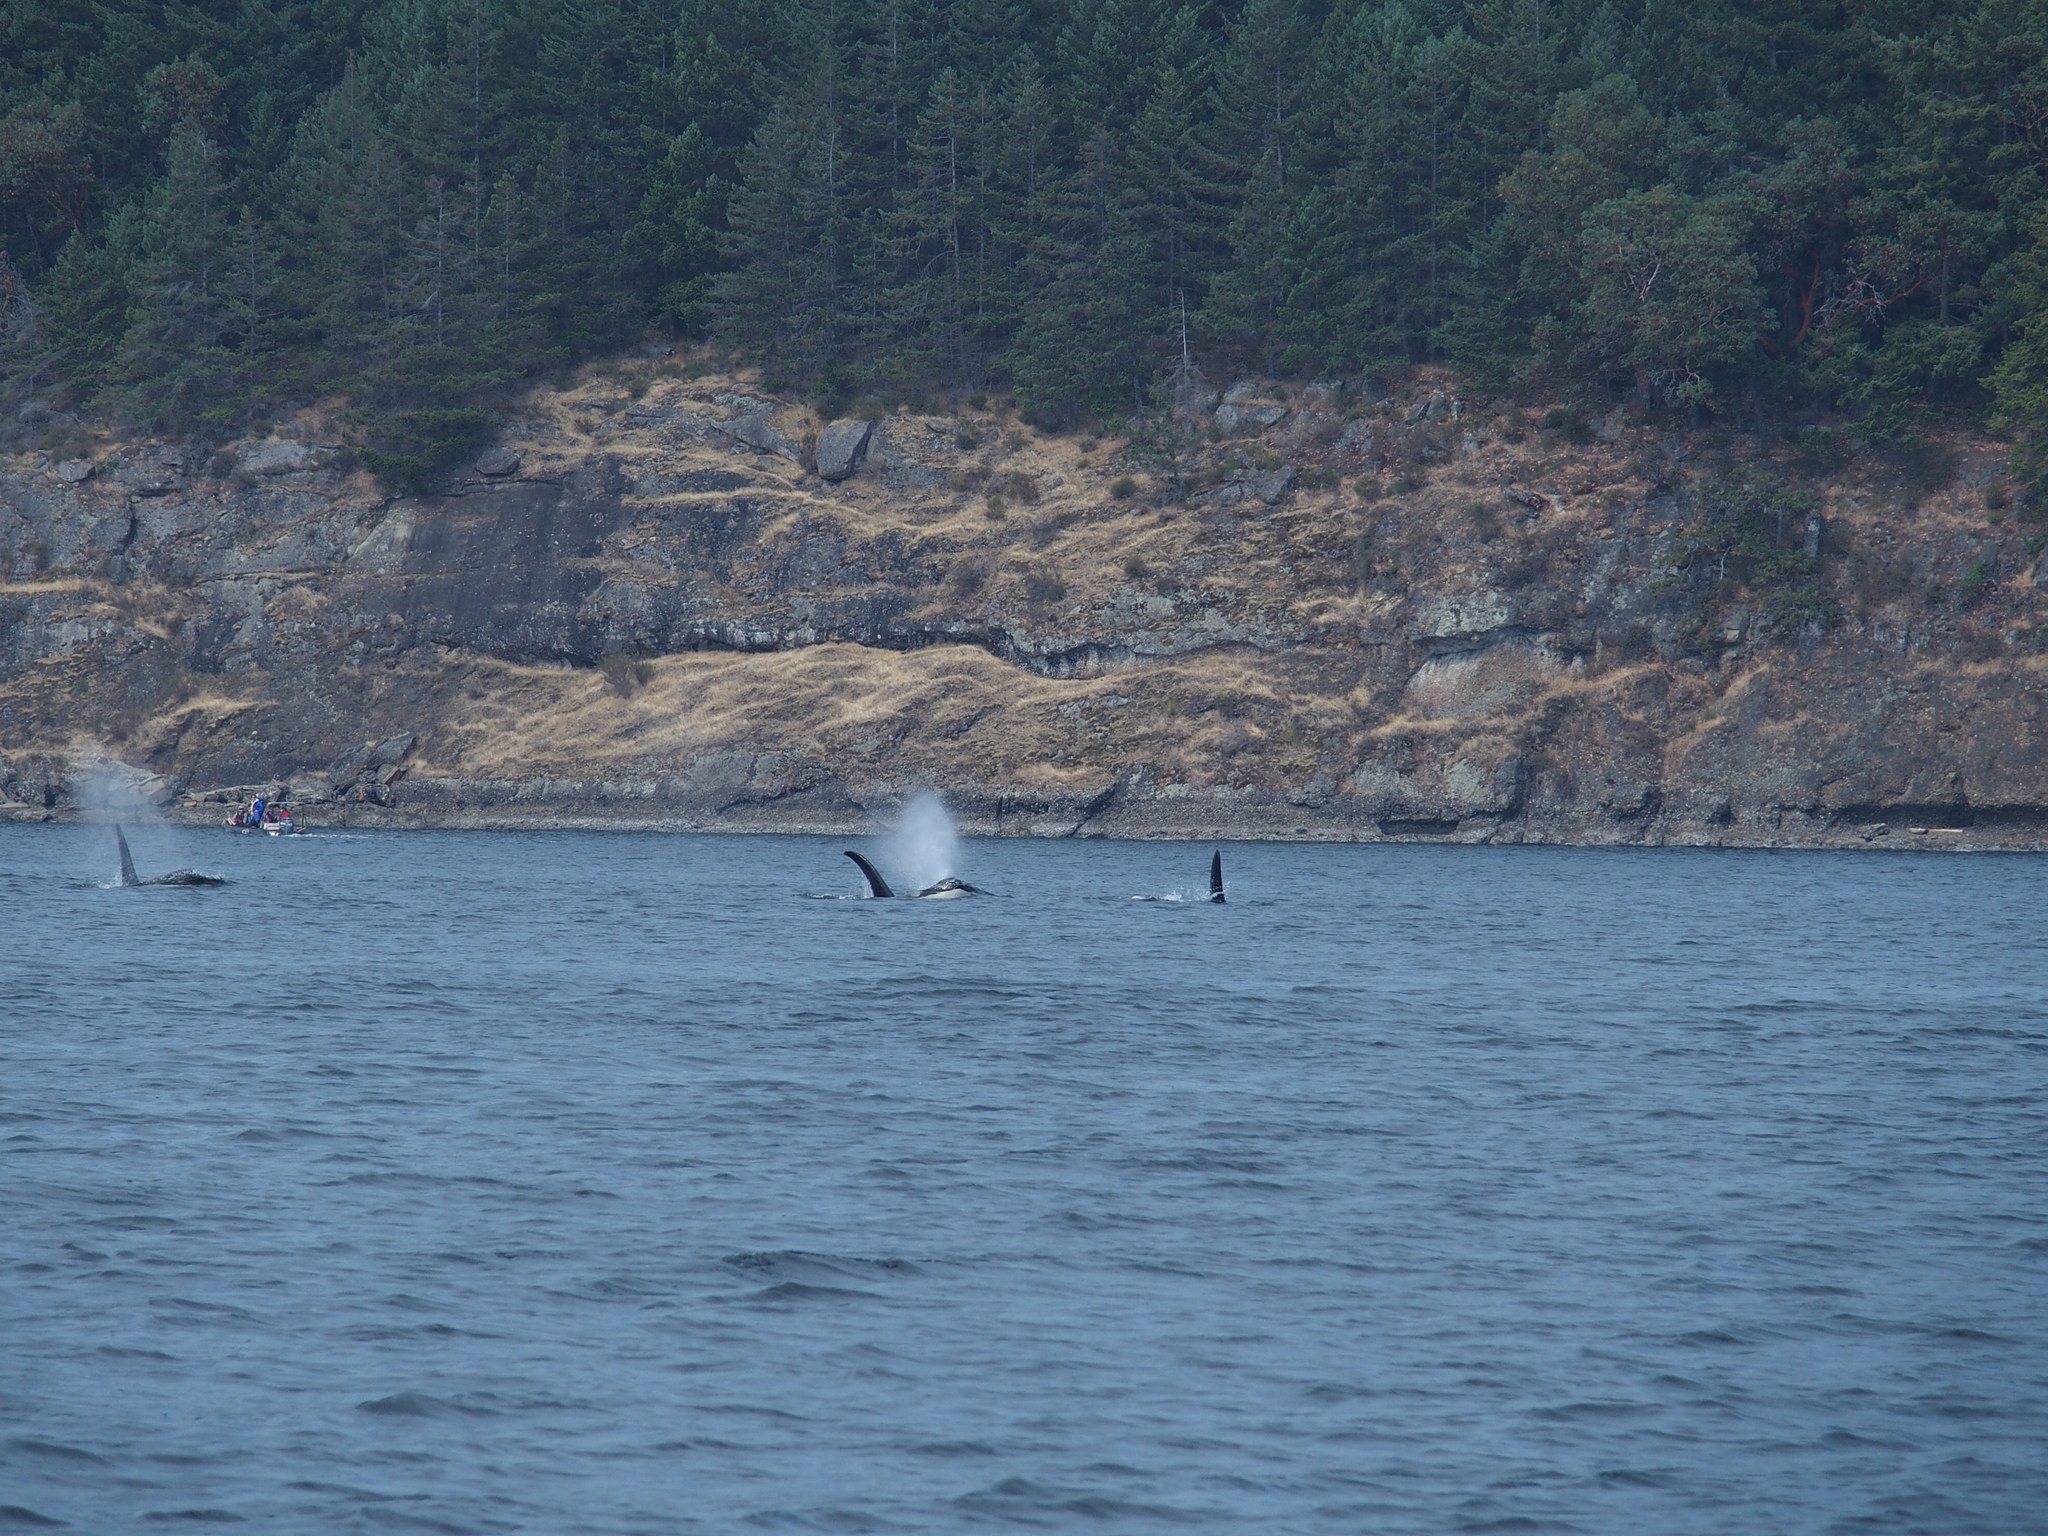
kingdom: Animalia
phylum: Chordata
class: Mammalia
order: Cetacea
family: Delphinidae
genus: Orcinus
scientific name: Orcinus orca
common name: Killer whale
